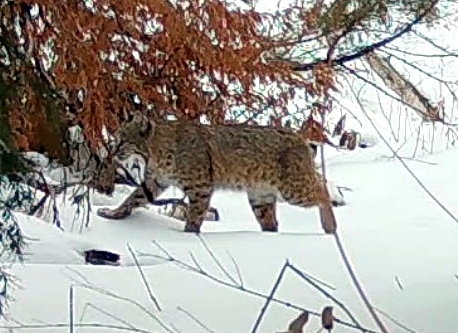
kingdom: Animalia
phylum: Chordata
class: Mammalia
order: Carnivora
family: Felidae
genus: Lynx
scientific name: Lynx rufus
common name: Bobcat
